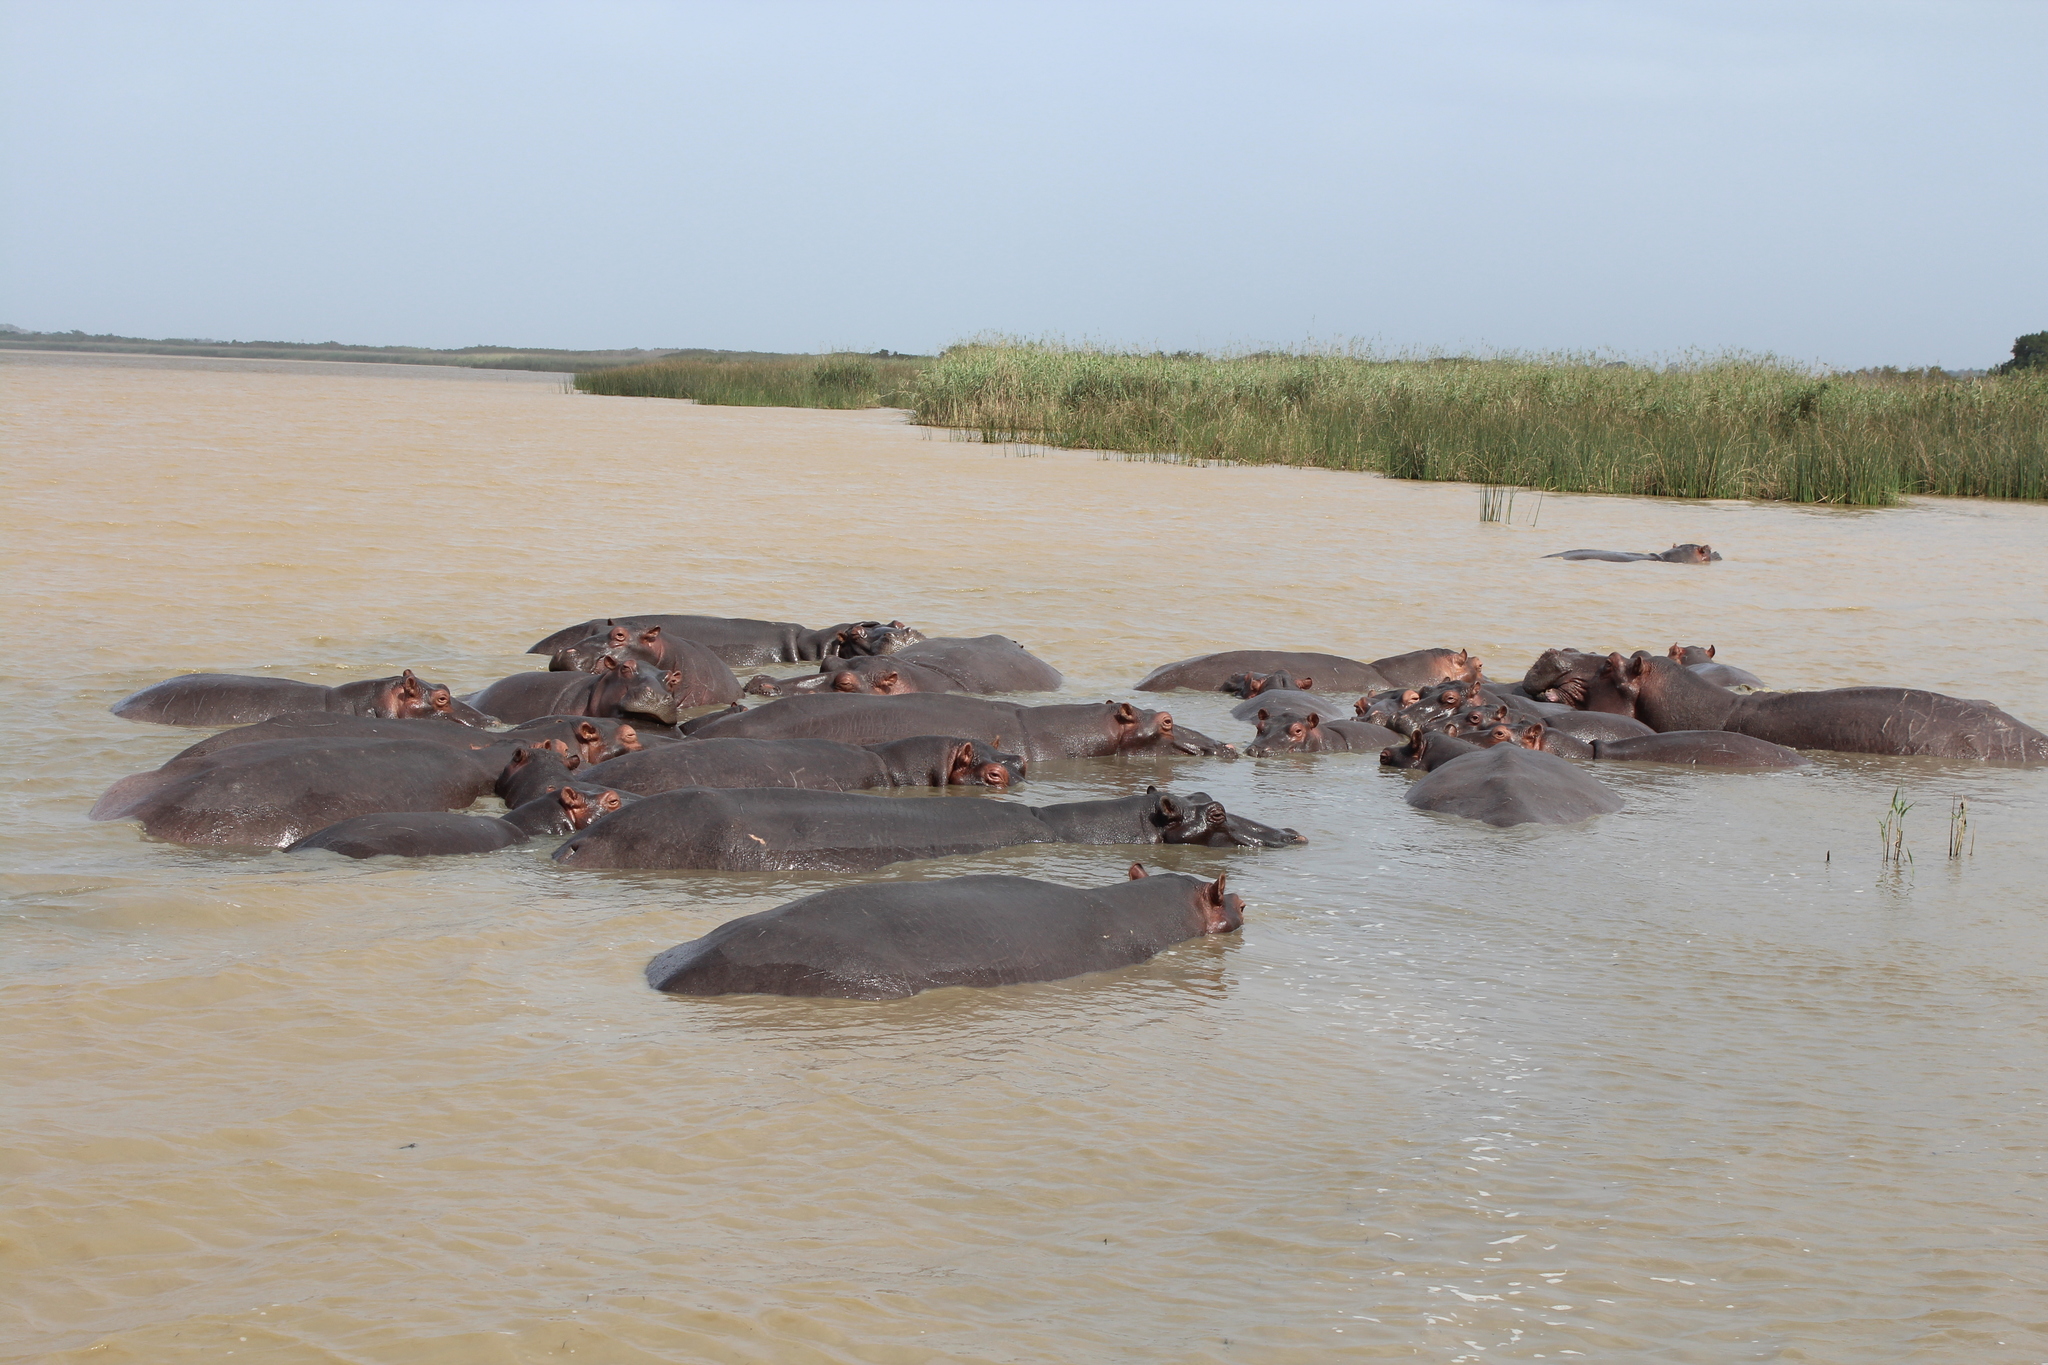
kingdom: Animalia
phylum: Chordata
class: Mammalia
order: Artiodactyla
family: Hippopotamidae
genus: Hippopotamus
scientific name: Hippopotamus amphibius
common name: Common hippopotamus
